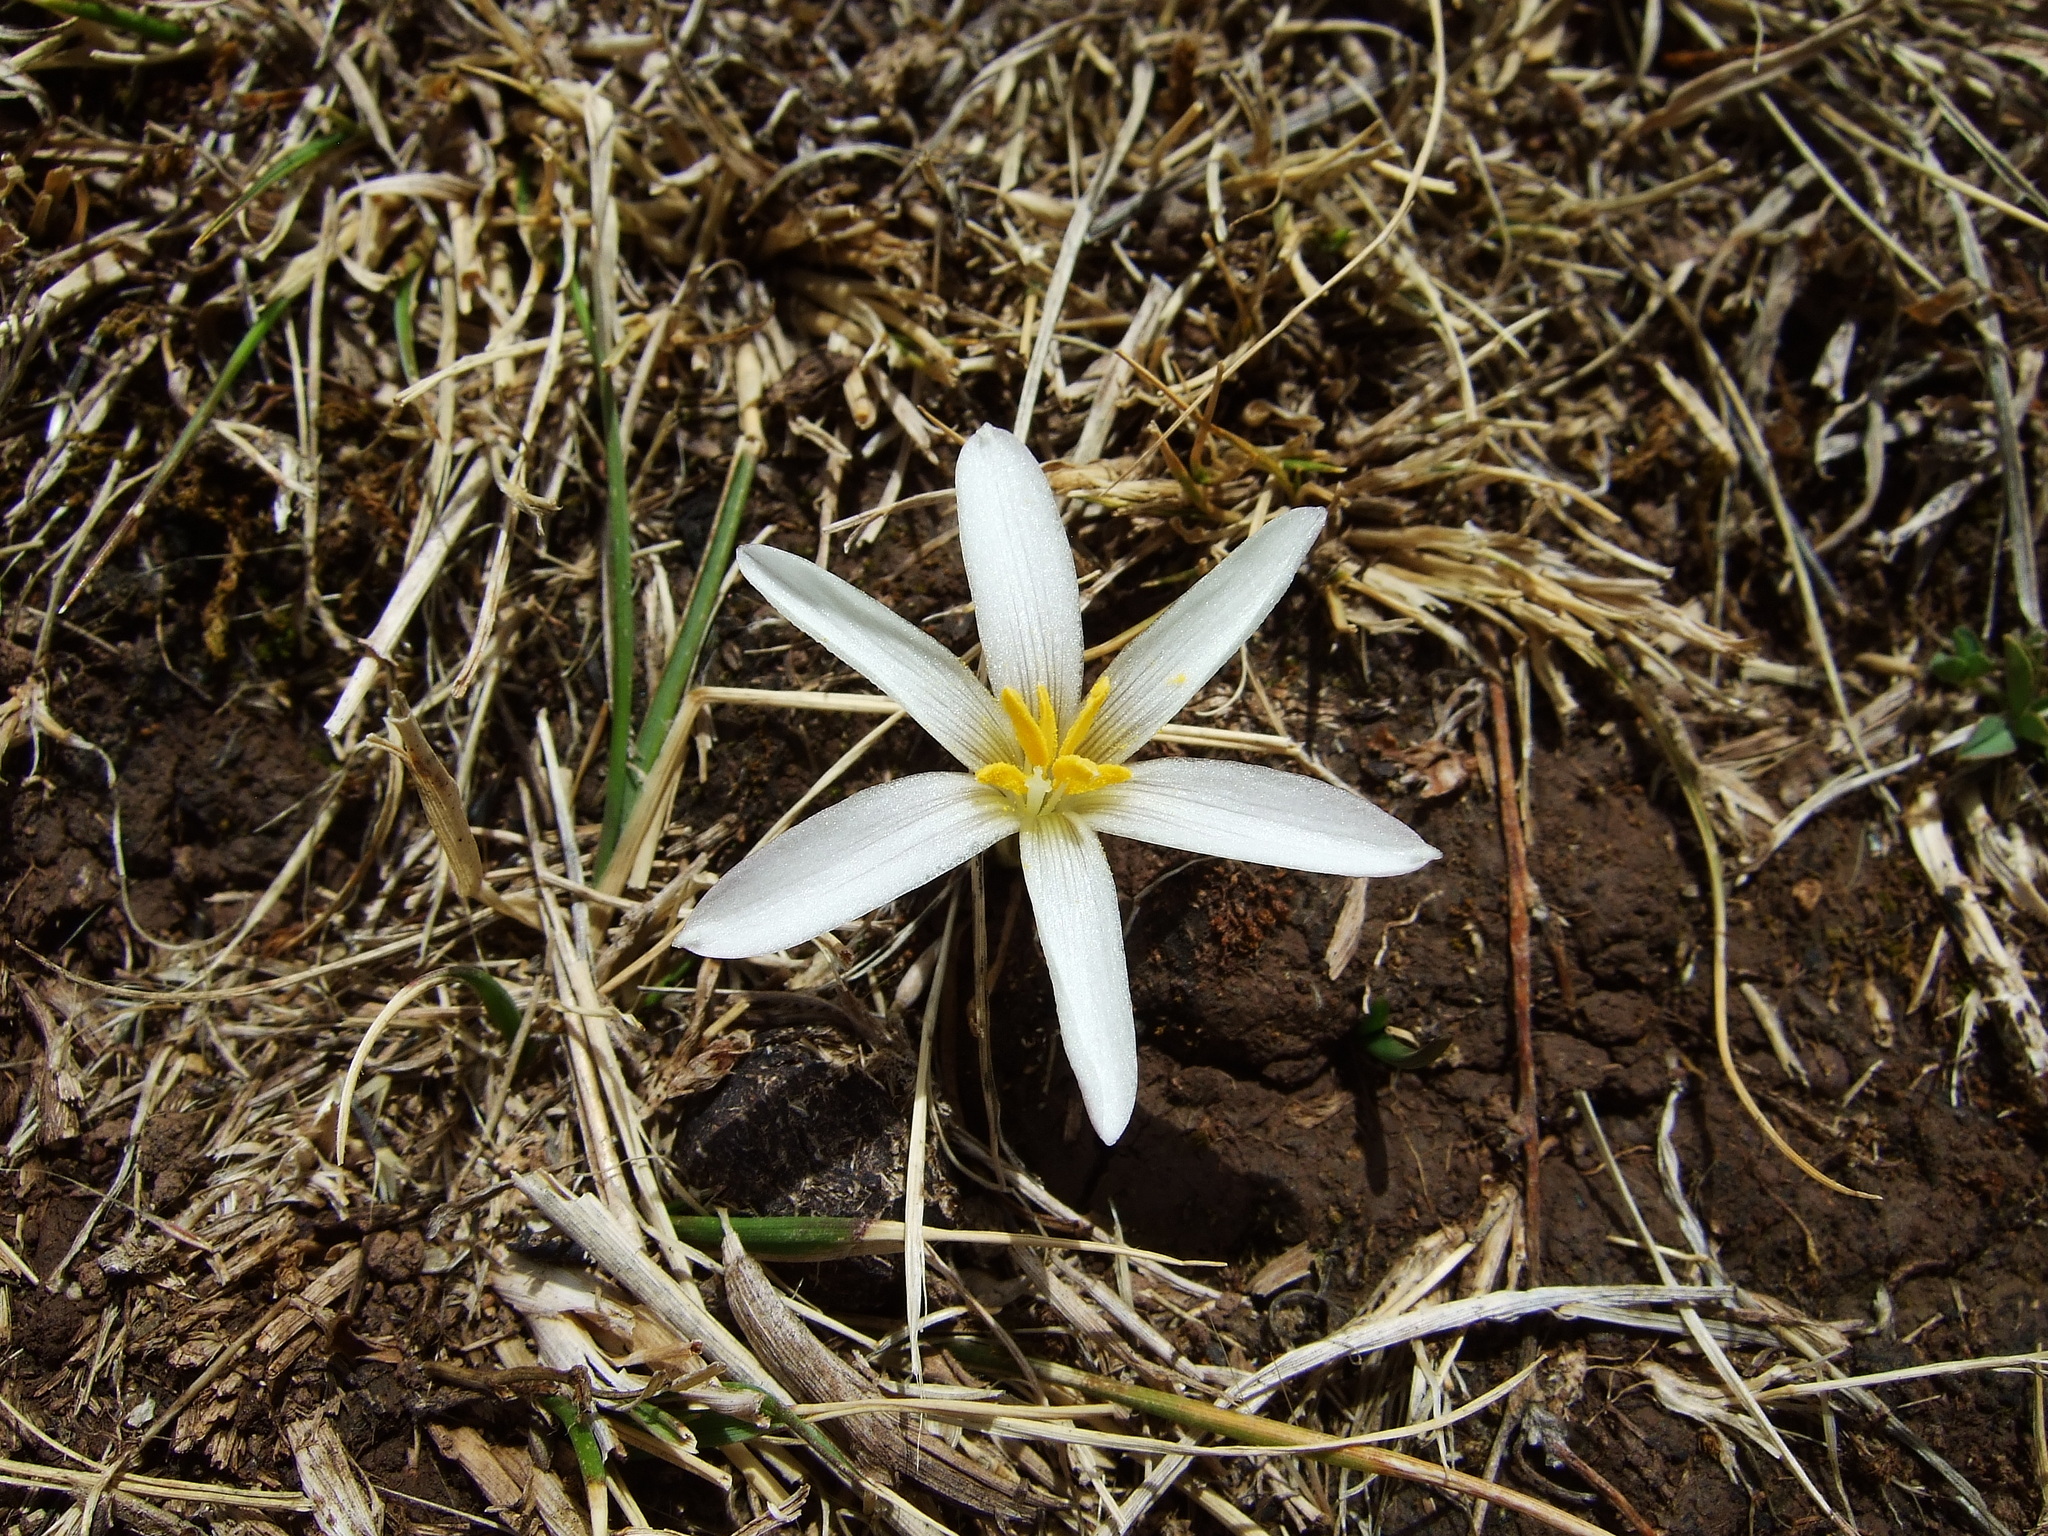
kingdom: Plantae
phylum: Tracheophyta
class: Liliopsida
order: Asparagales
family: Amaryllidaceae
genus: Zephyranthes
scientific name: Zephyranthes andina
